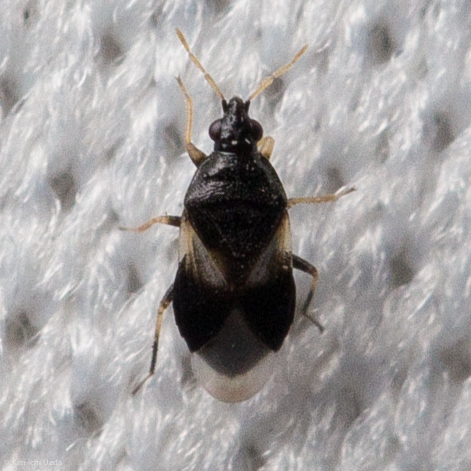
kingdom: Animalia
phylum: Arthropoda
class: Insecta
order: Hemiptera
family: Anthocoridae
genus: Orius
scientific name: Orius tristicolor
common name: Minute pirate bug
